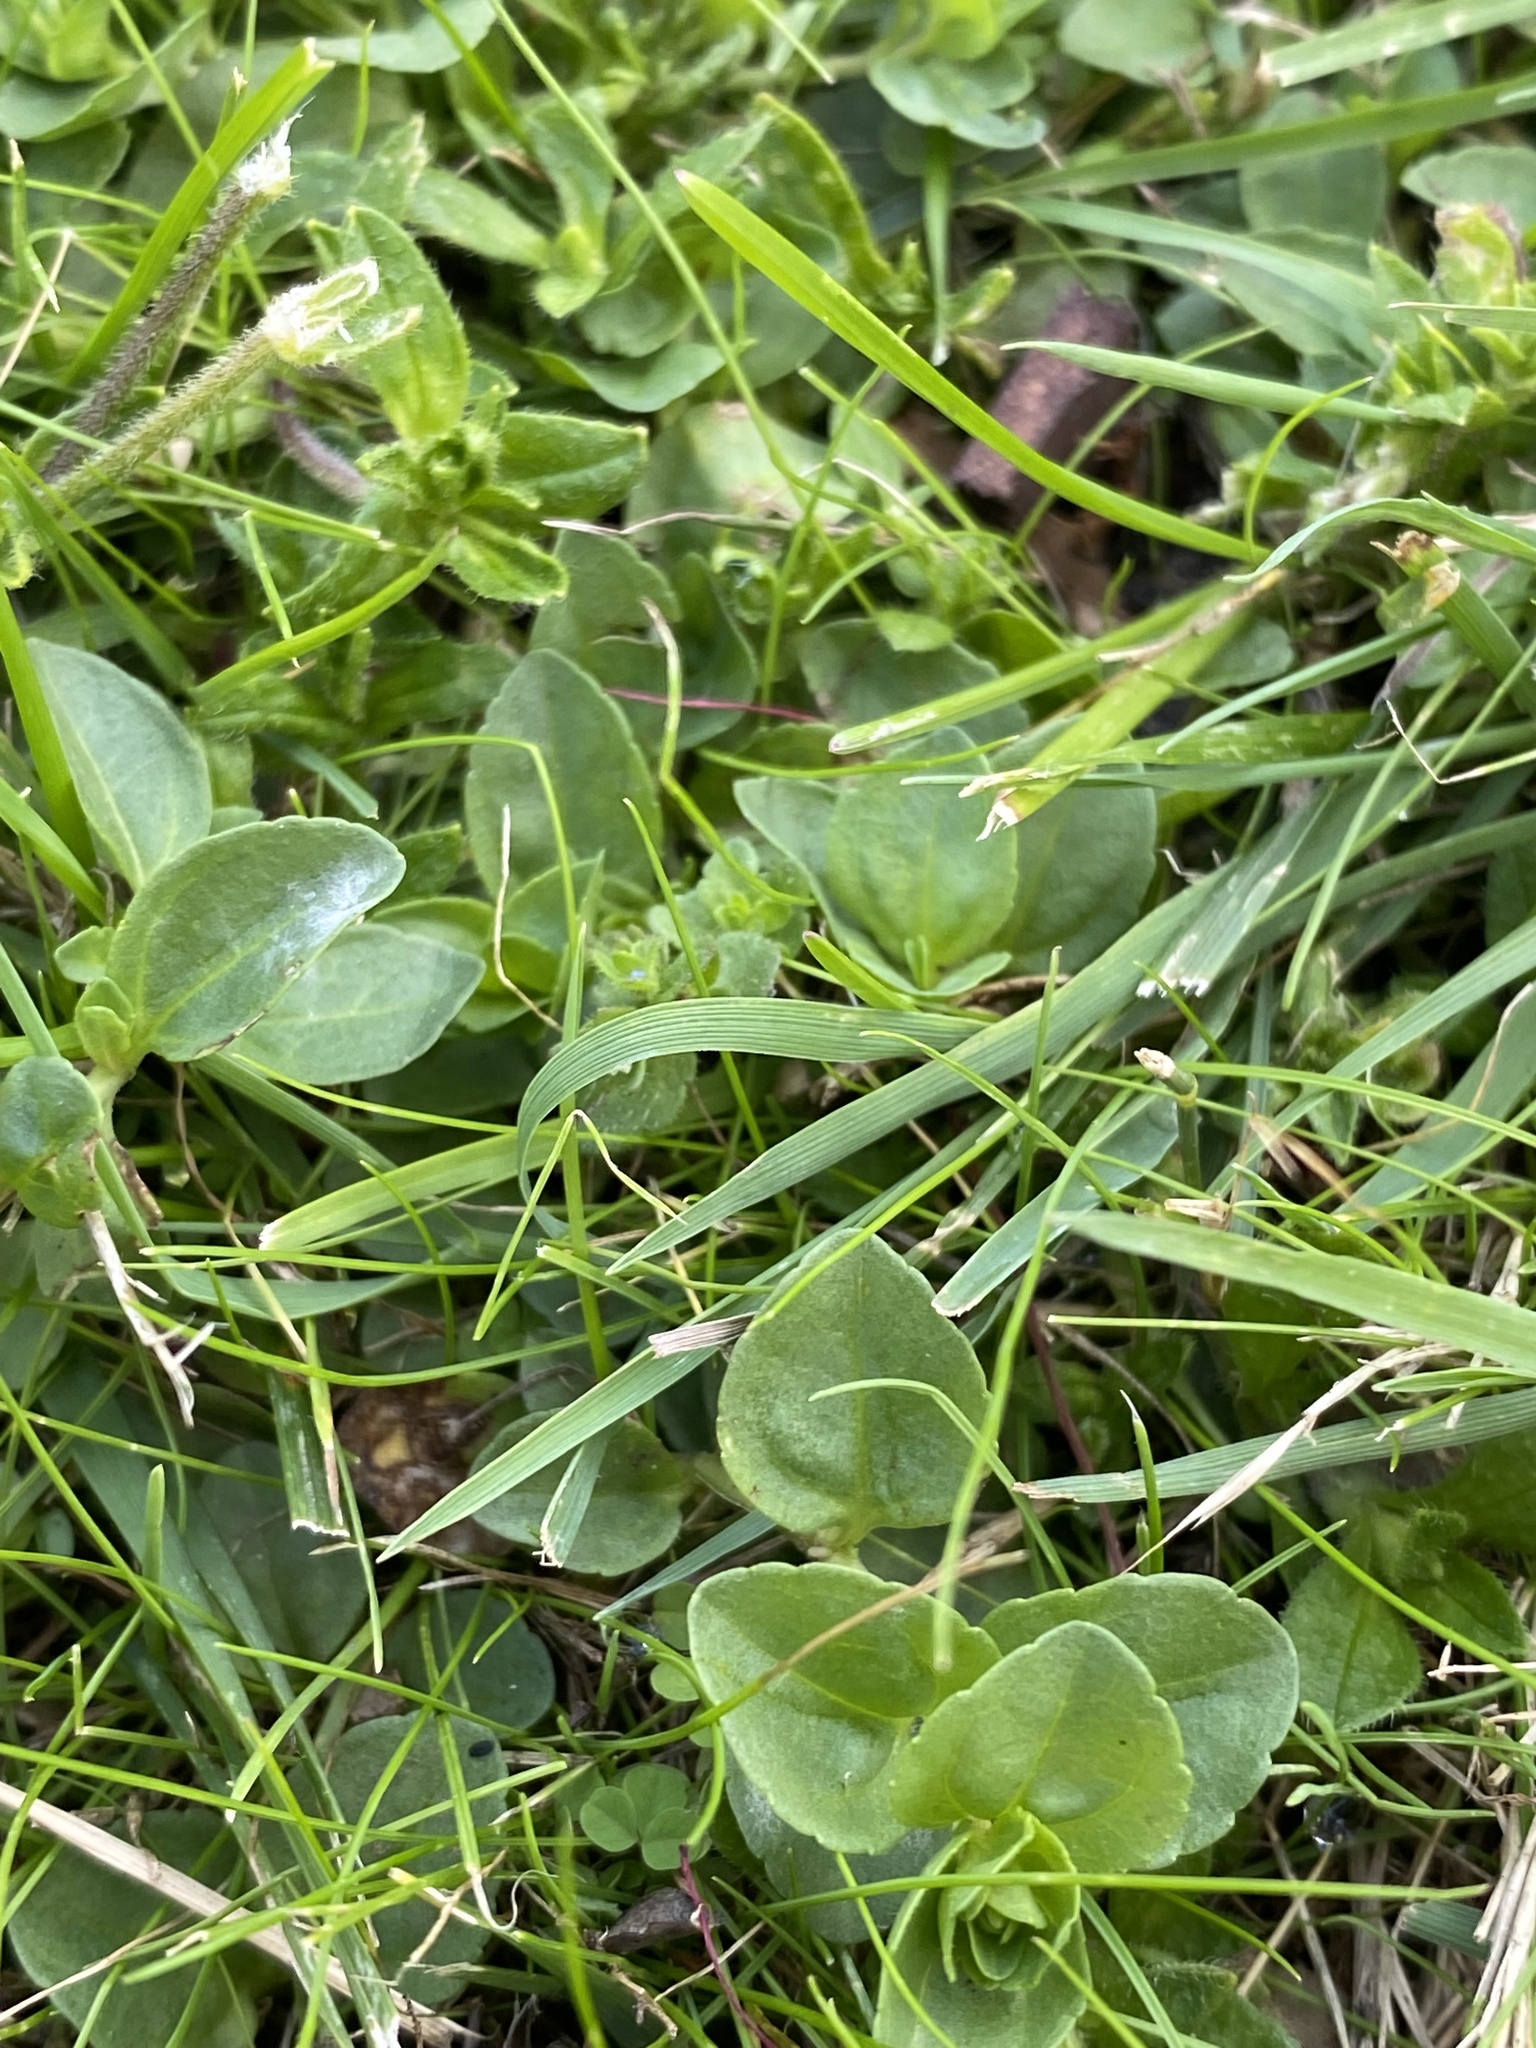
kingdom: Plantae
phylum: Tracheophyta
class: Magnoliopsida
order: Lamiales
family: Plantaginaceae
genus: Veronica
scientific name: Veronica serpyllifolia
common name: Thyme-leaved speedwell
